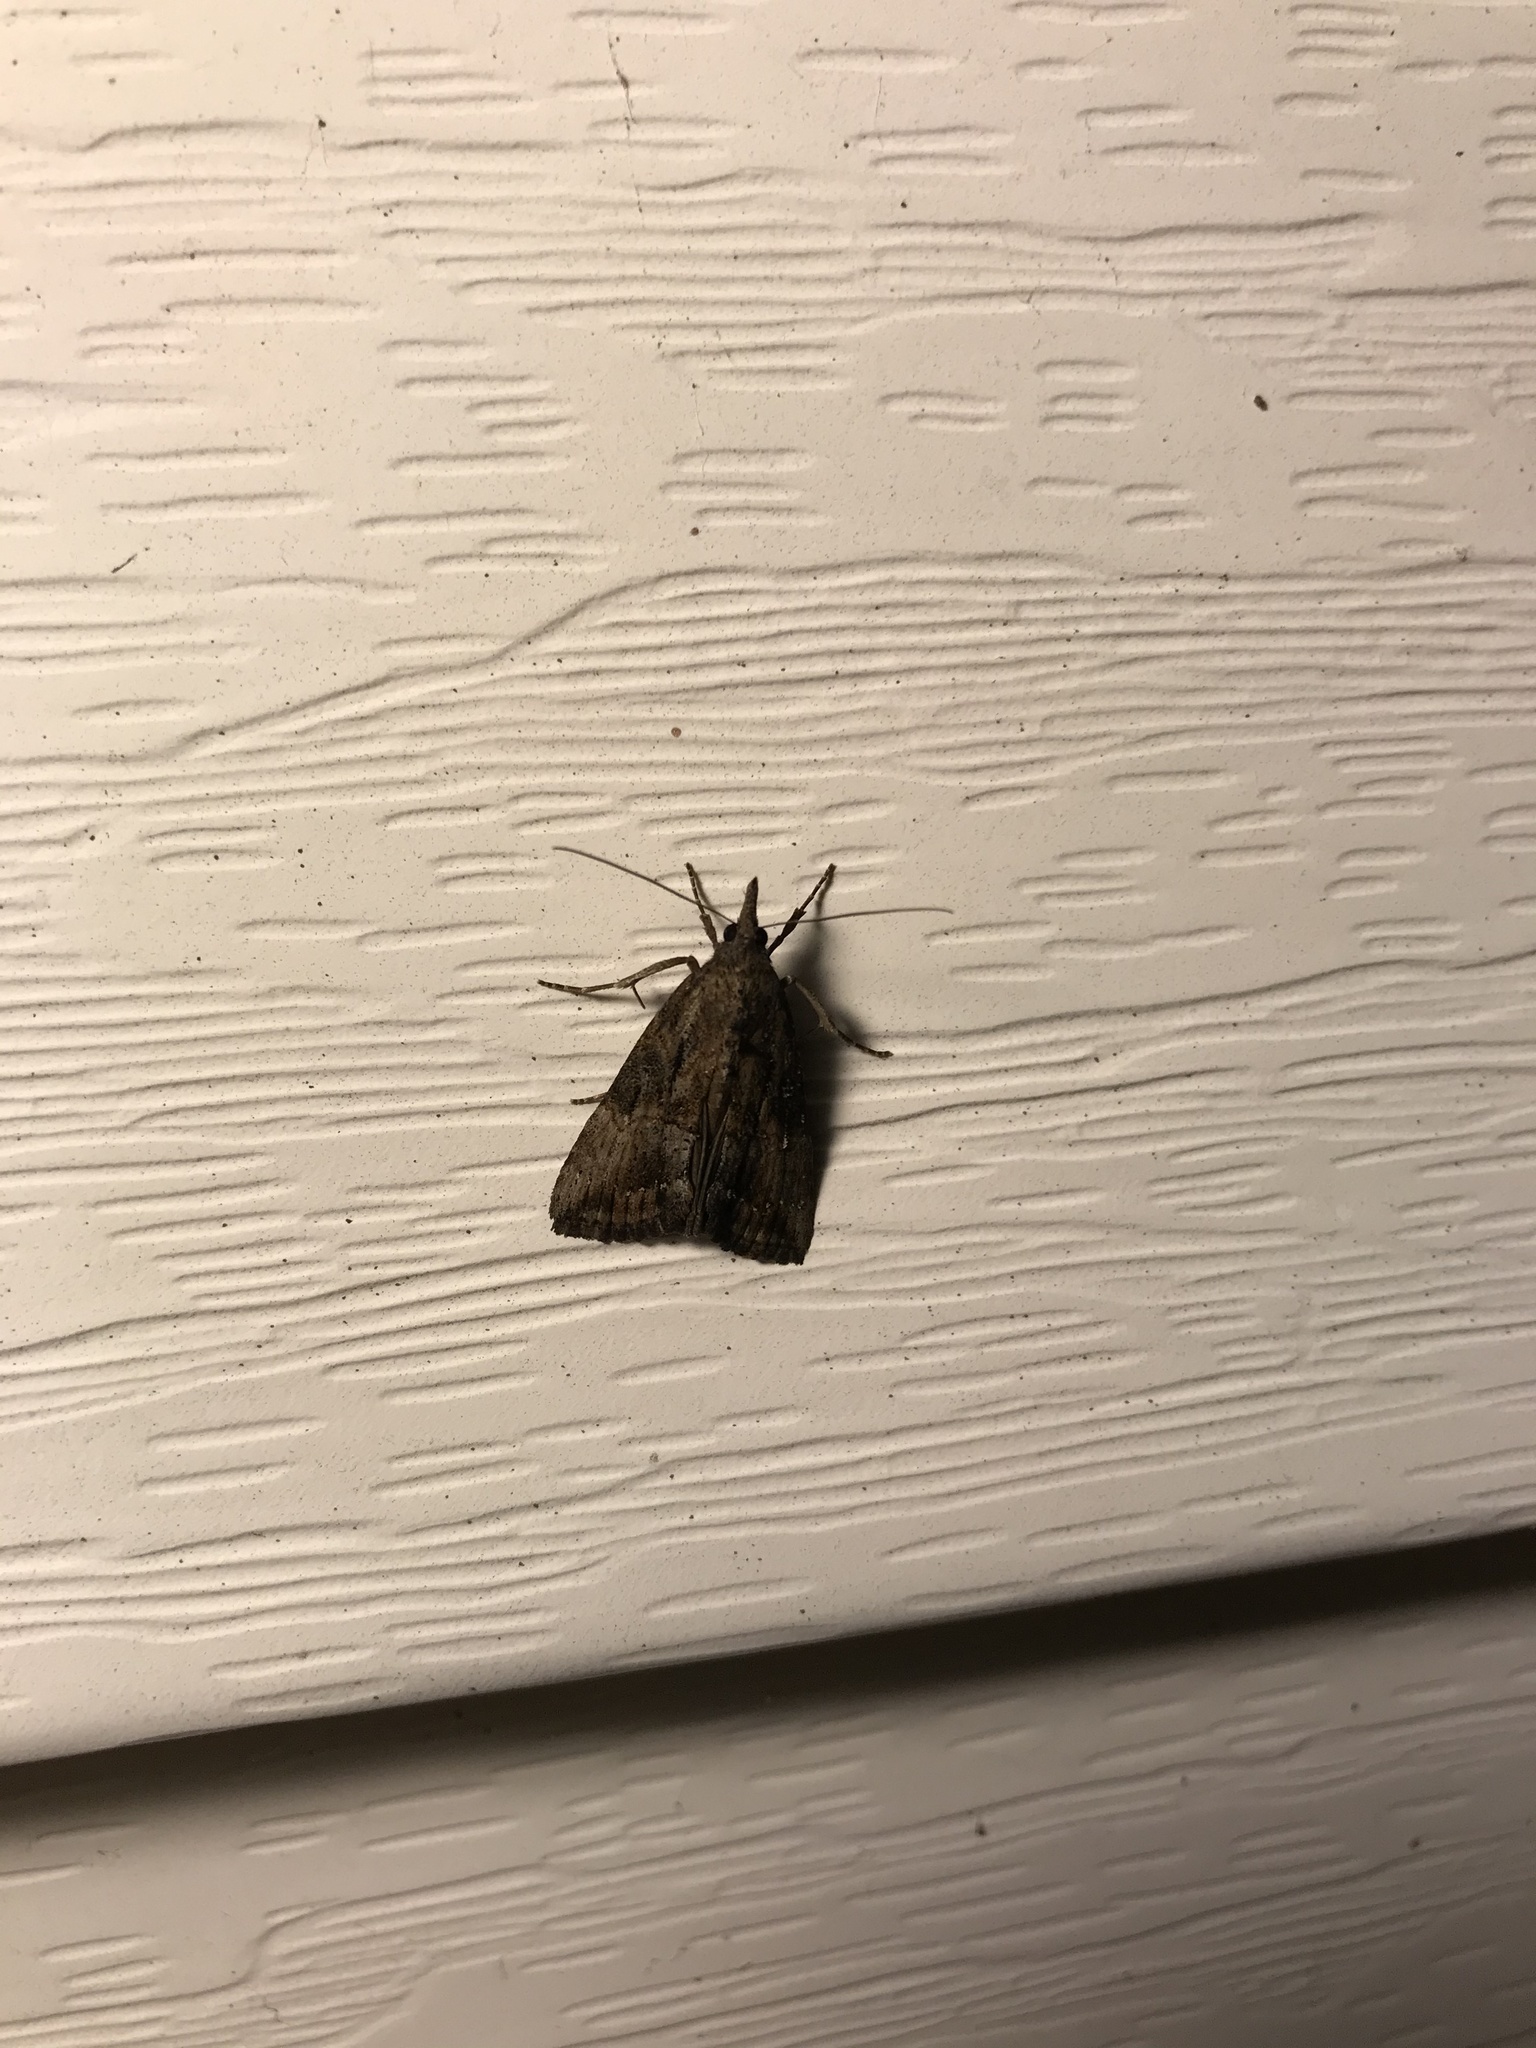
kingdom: Animalia
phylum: Arthropoda
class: Insecta
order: Lepidoptera
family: Erebidae
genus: Hypena
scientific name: Hypena scabra
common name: Green cloverworm
